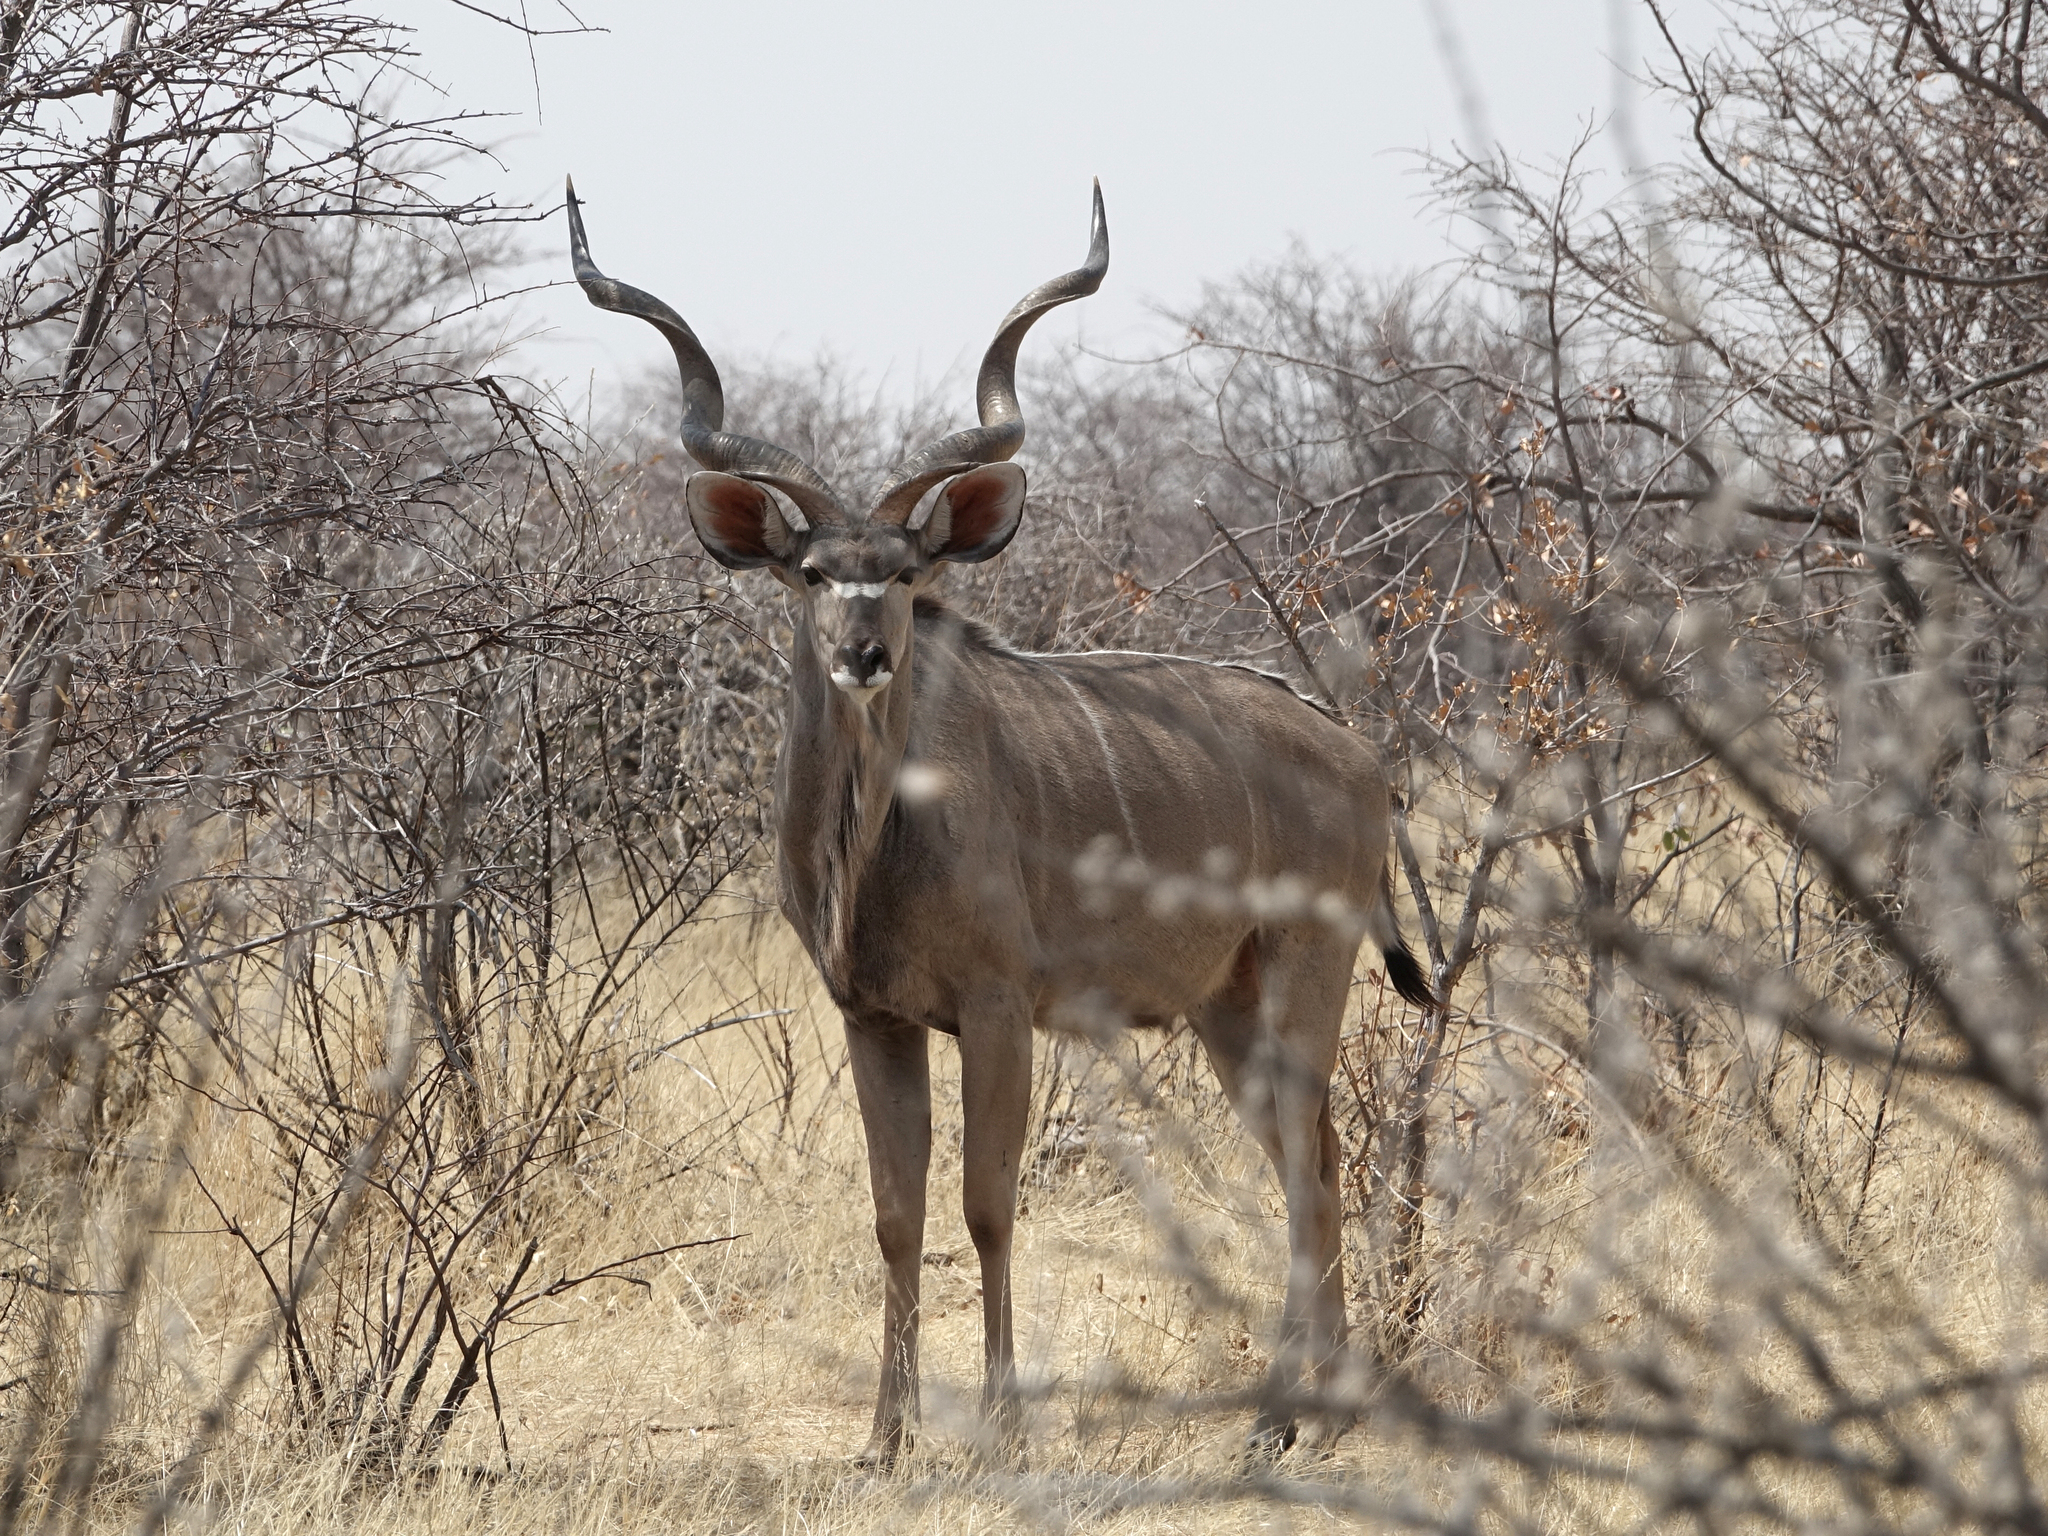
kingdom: Animalia
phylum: Chordata
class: Mammalia
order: Artiodactyla
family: Bovidae
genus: Tragelaphus
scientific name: Tragelaphus strepsiceros
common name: Greater kudu
